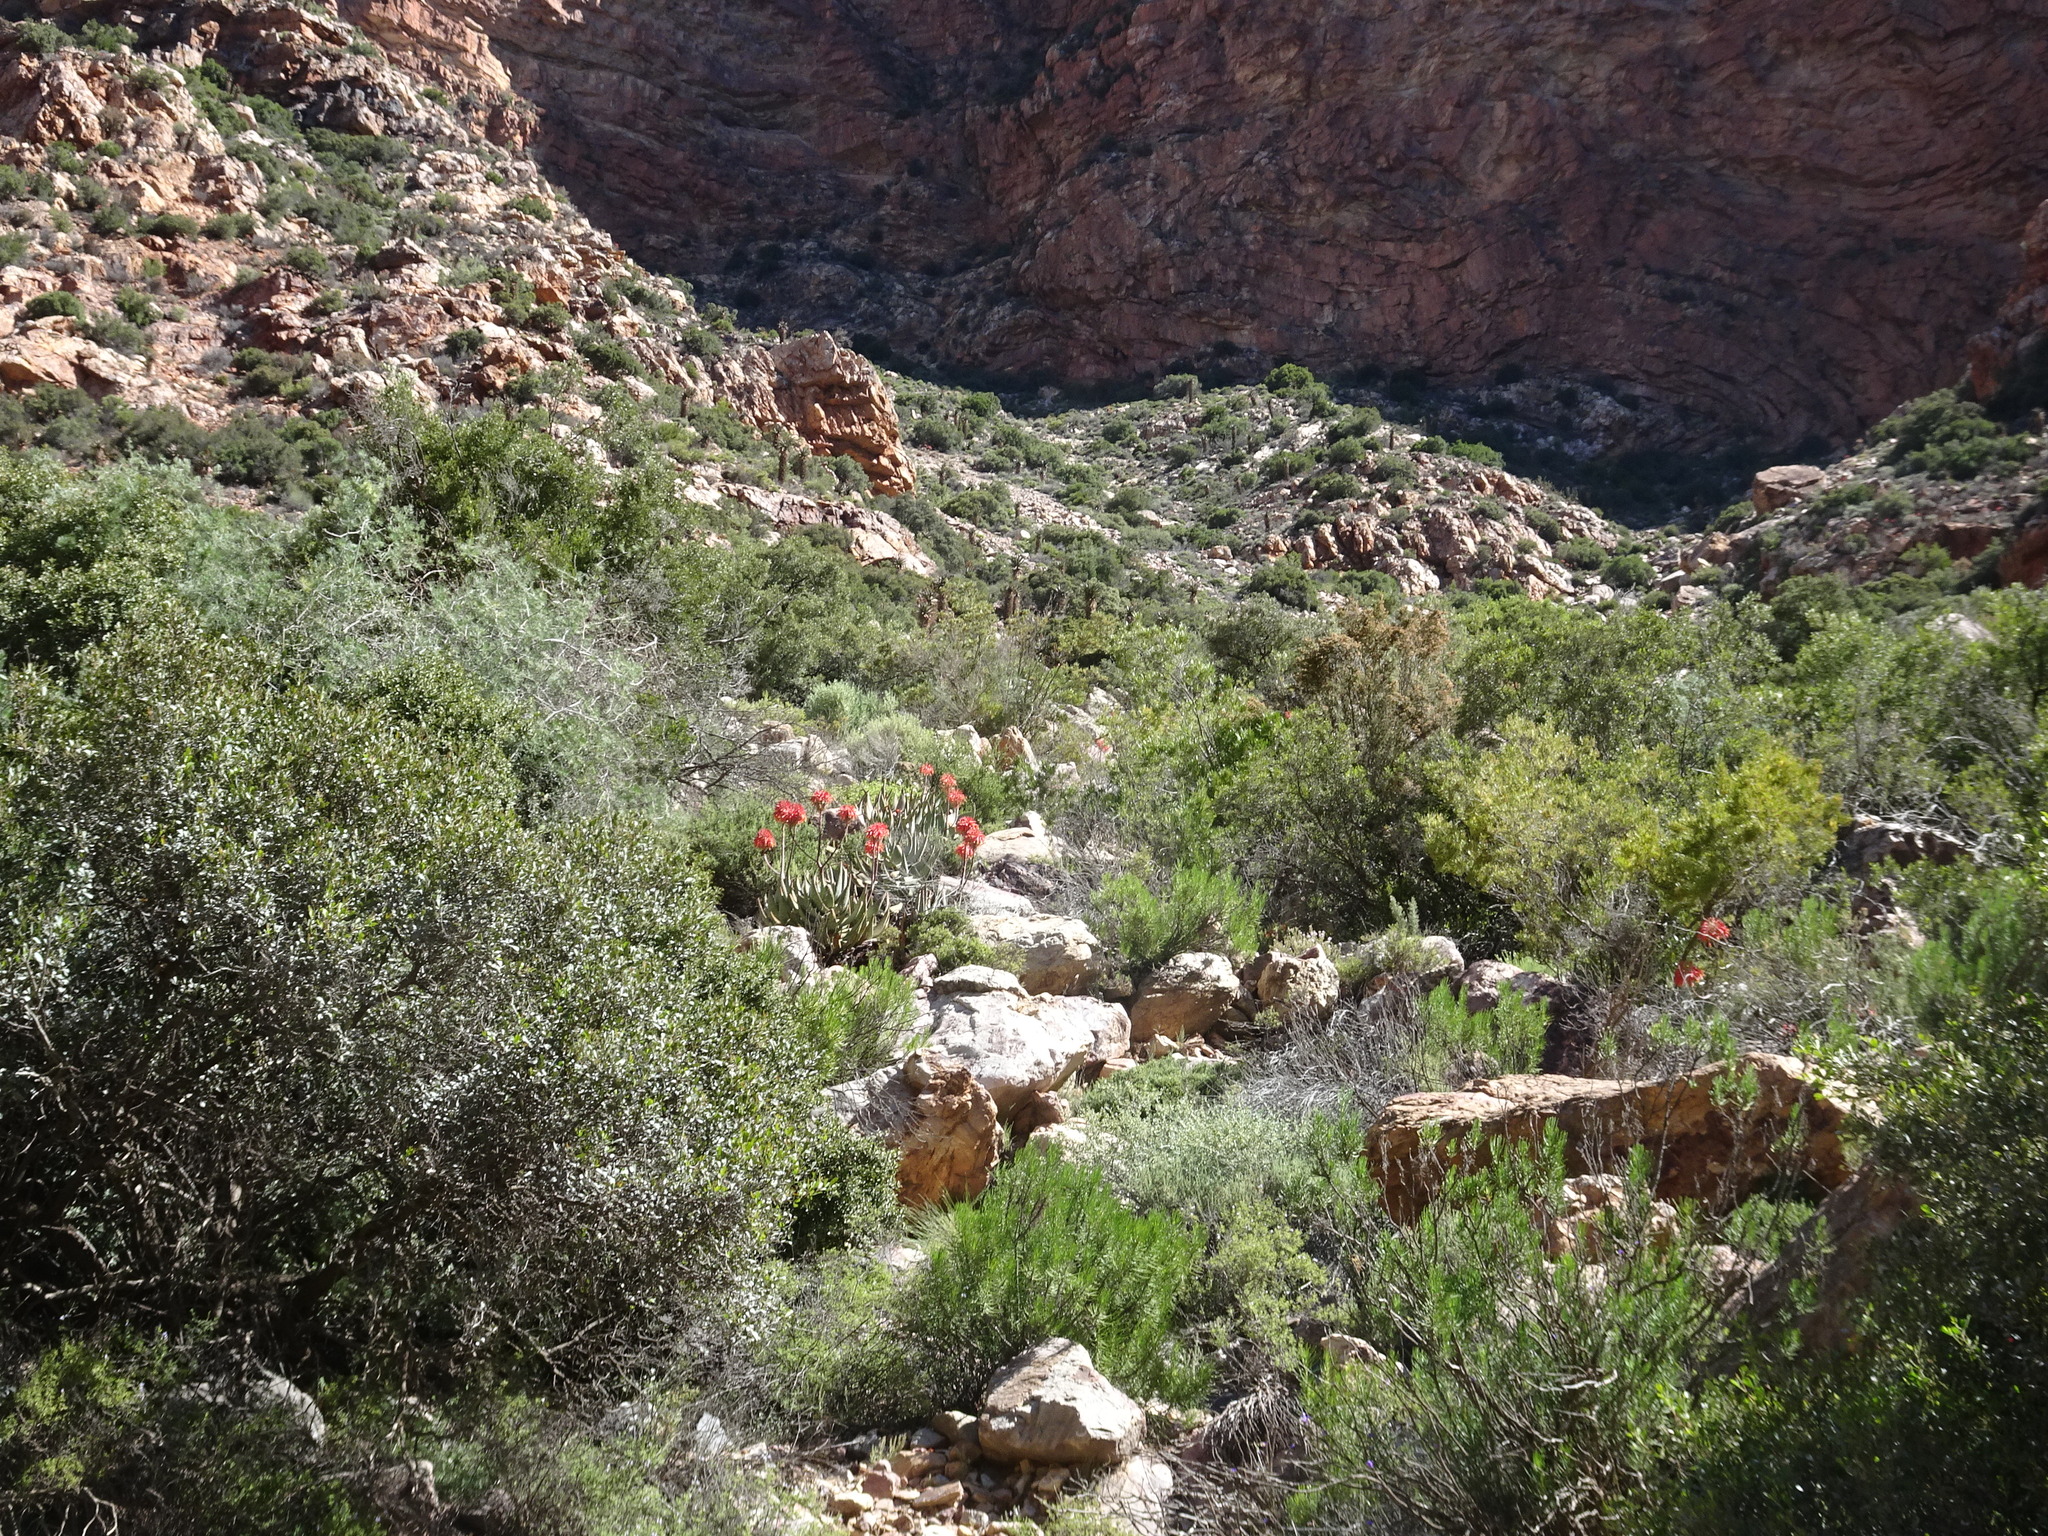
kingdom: Plantae
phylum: Tracheophyta
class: Liliopsida
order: Asparagales
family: Asphodelaceae
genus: Aloe
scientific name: Aloe comptonii
